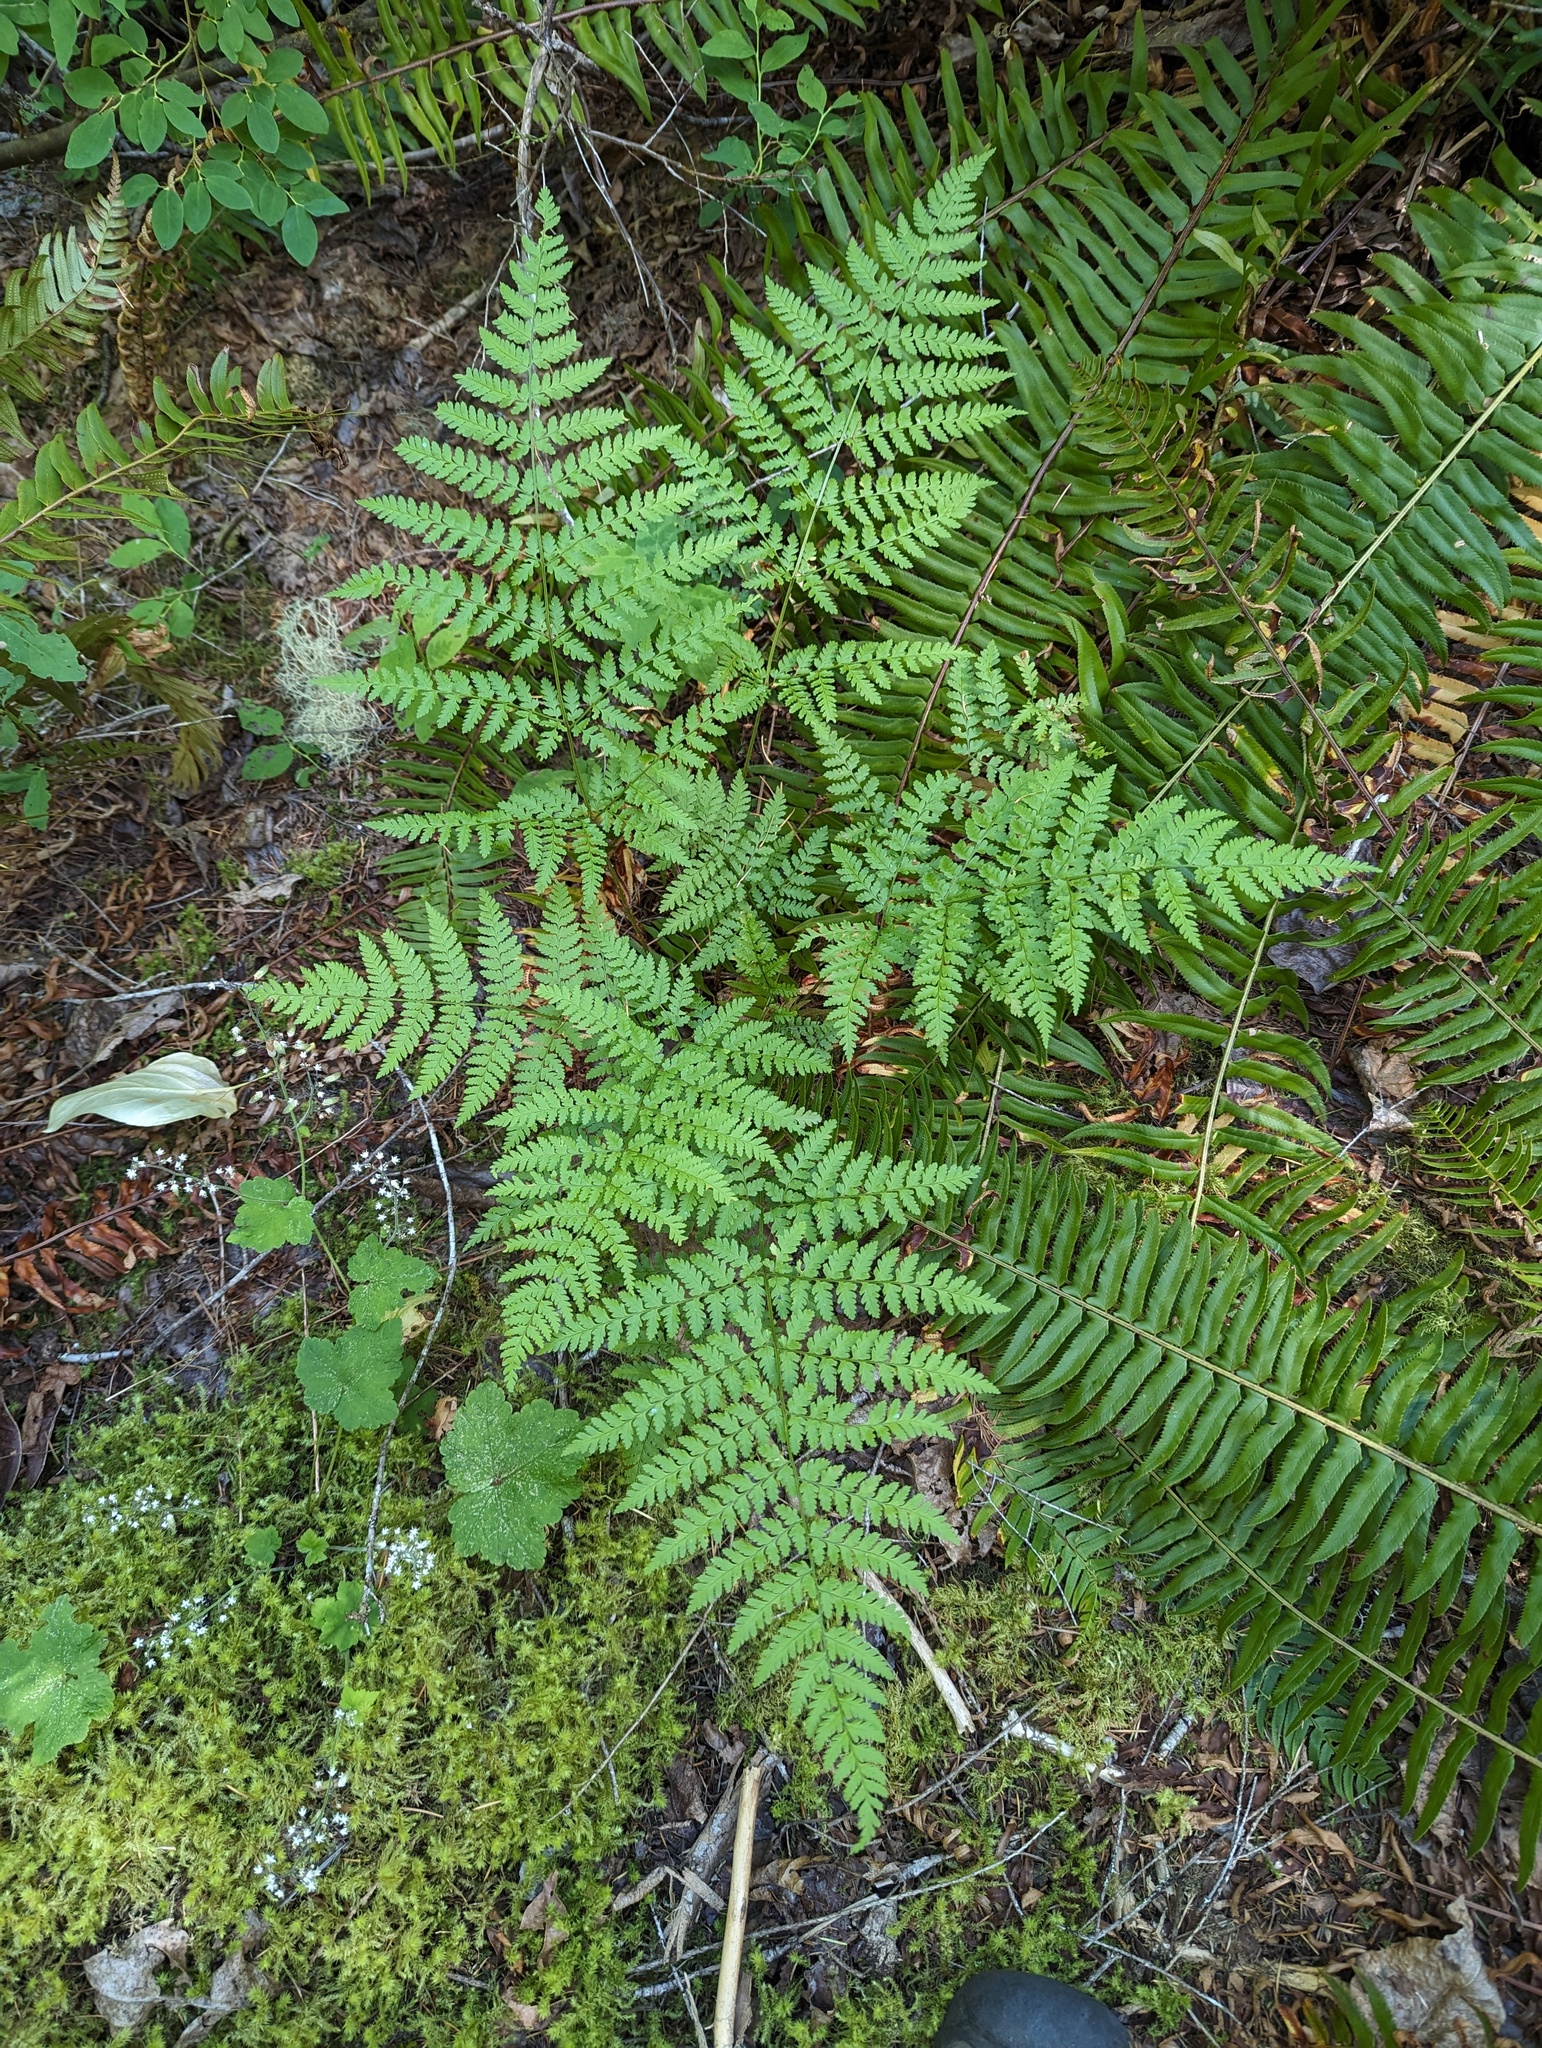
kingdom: Plantae
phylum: Tracheophyta
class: Polypodiopsida
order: Polypodiales
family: Dryopteridaceae
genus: Dryopteris
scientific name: Dryopteris expansa
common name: Northern buckler fern
